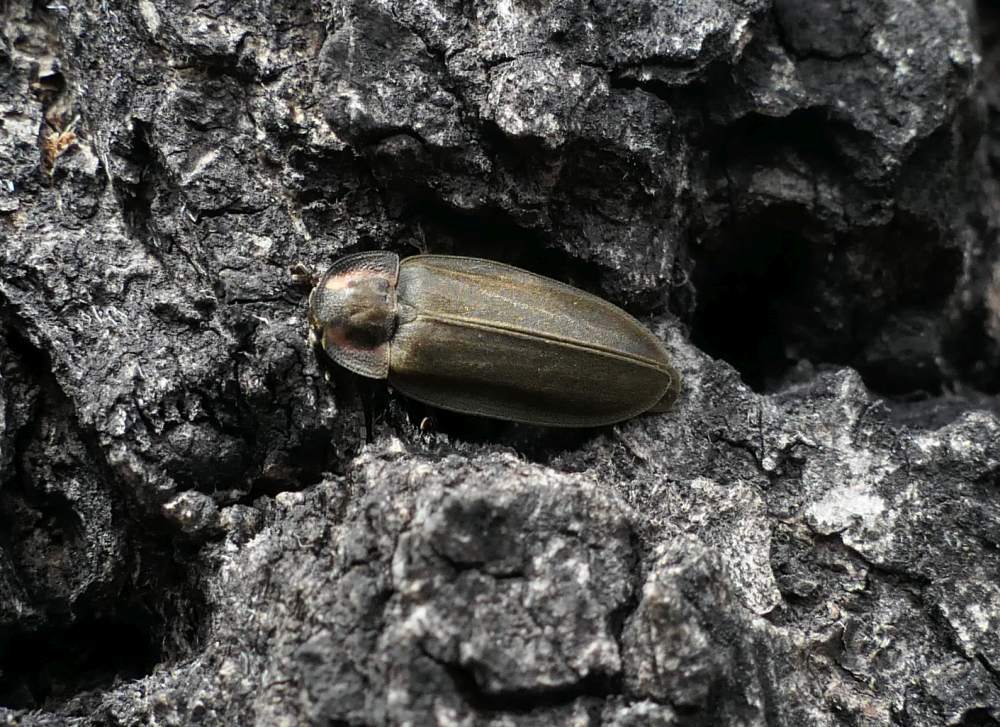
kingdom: Animalia
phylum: Arthropoda
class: Insecta
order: Coleoptera
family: Lampyridae
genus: Photinus
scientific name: Photinus corrusca
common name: Winter firefly
